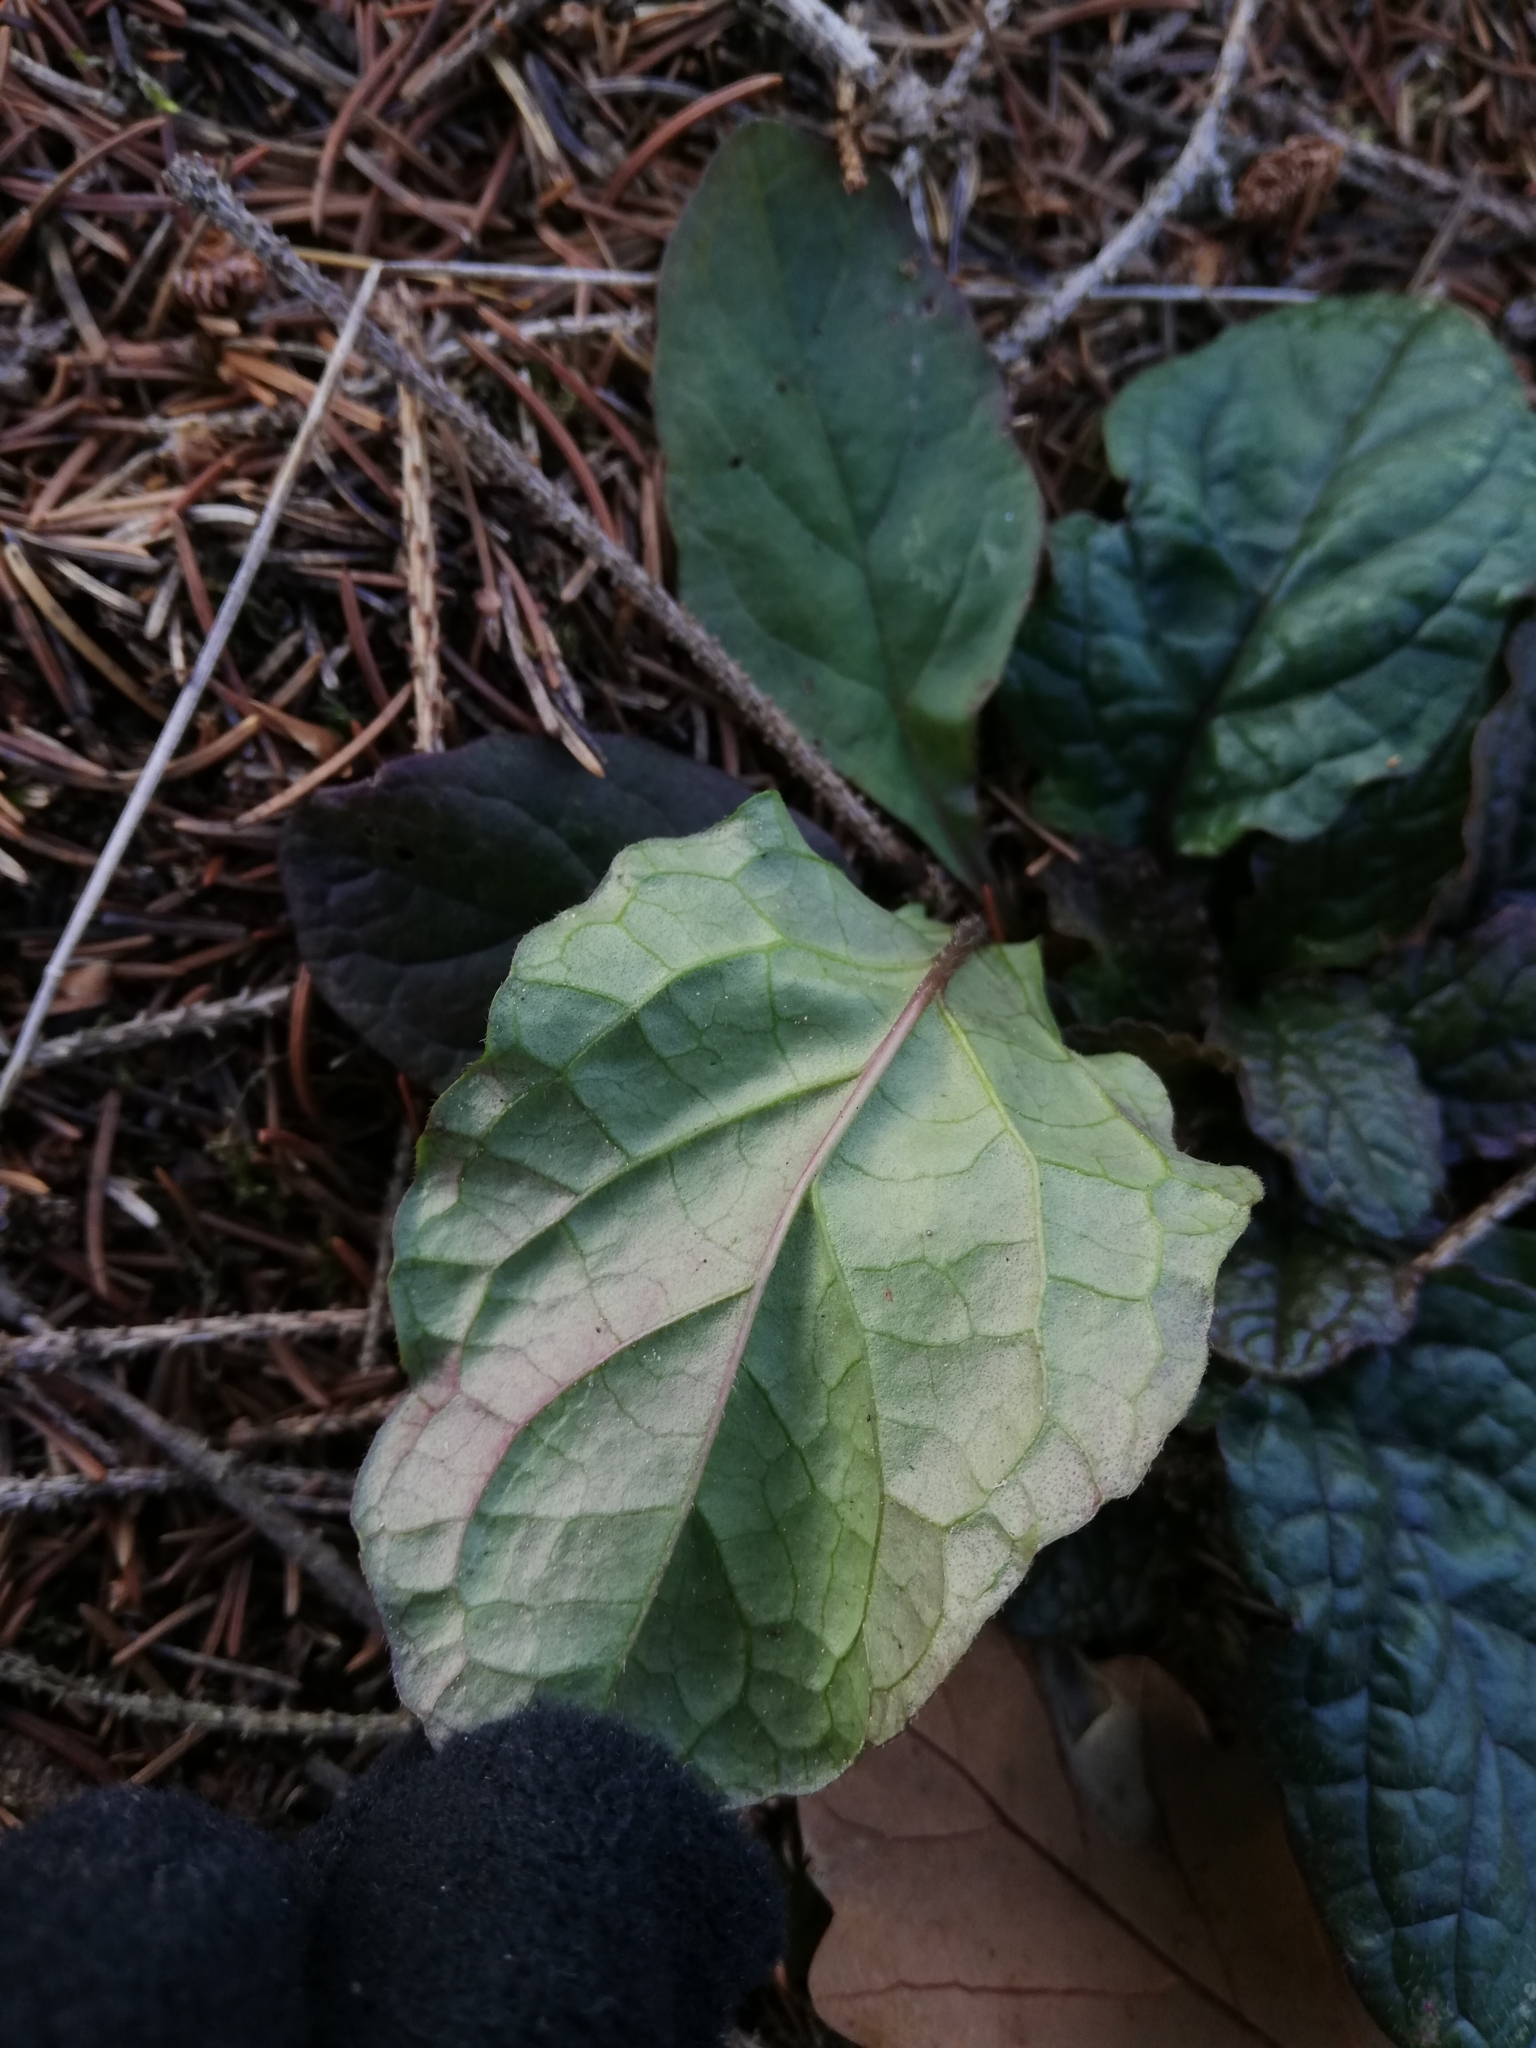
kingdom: Plantae
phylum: Tracheophyta
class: Magnoliopsida
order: Lamiales
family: Lamiaceae
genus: Ajuga
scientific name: Ajuga reptans
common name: Bugle
